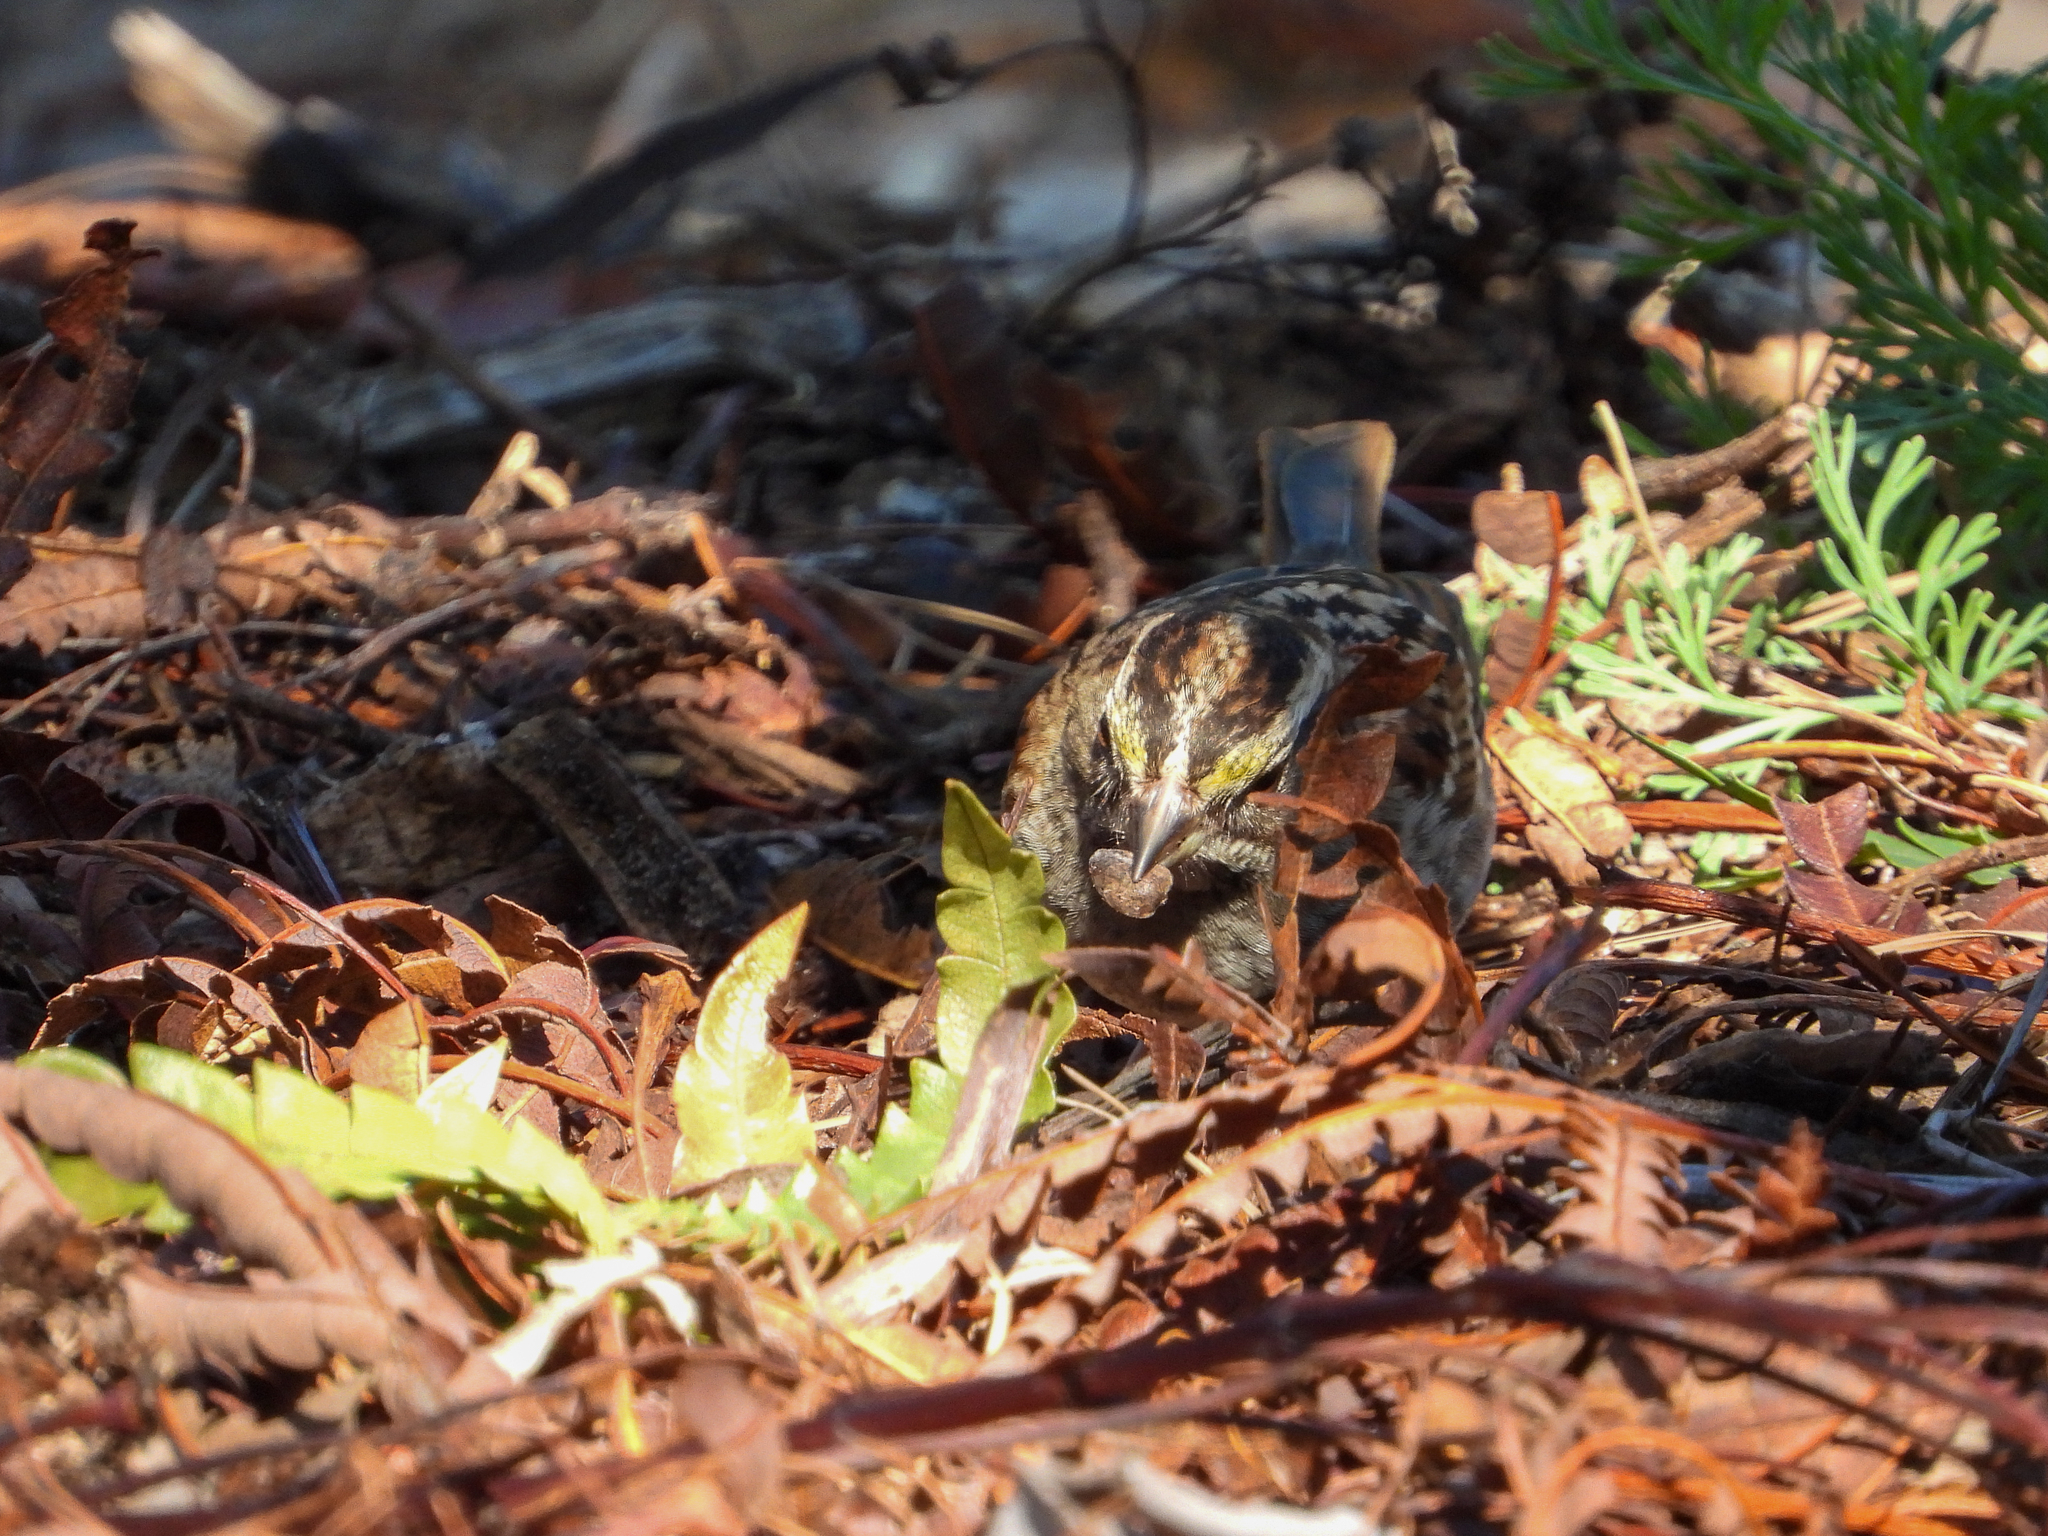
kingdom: Animalia
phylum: Chordata
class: Aves
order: Passeriformes
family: Passerellidae
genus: Zonotrichia
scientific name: Zonotrichia albicollis
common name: White-throated sparrow
